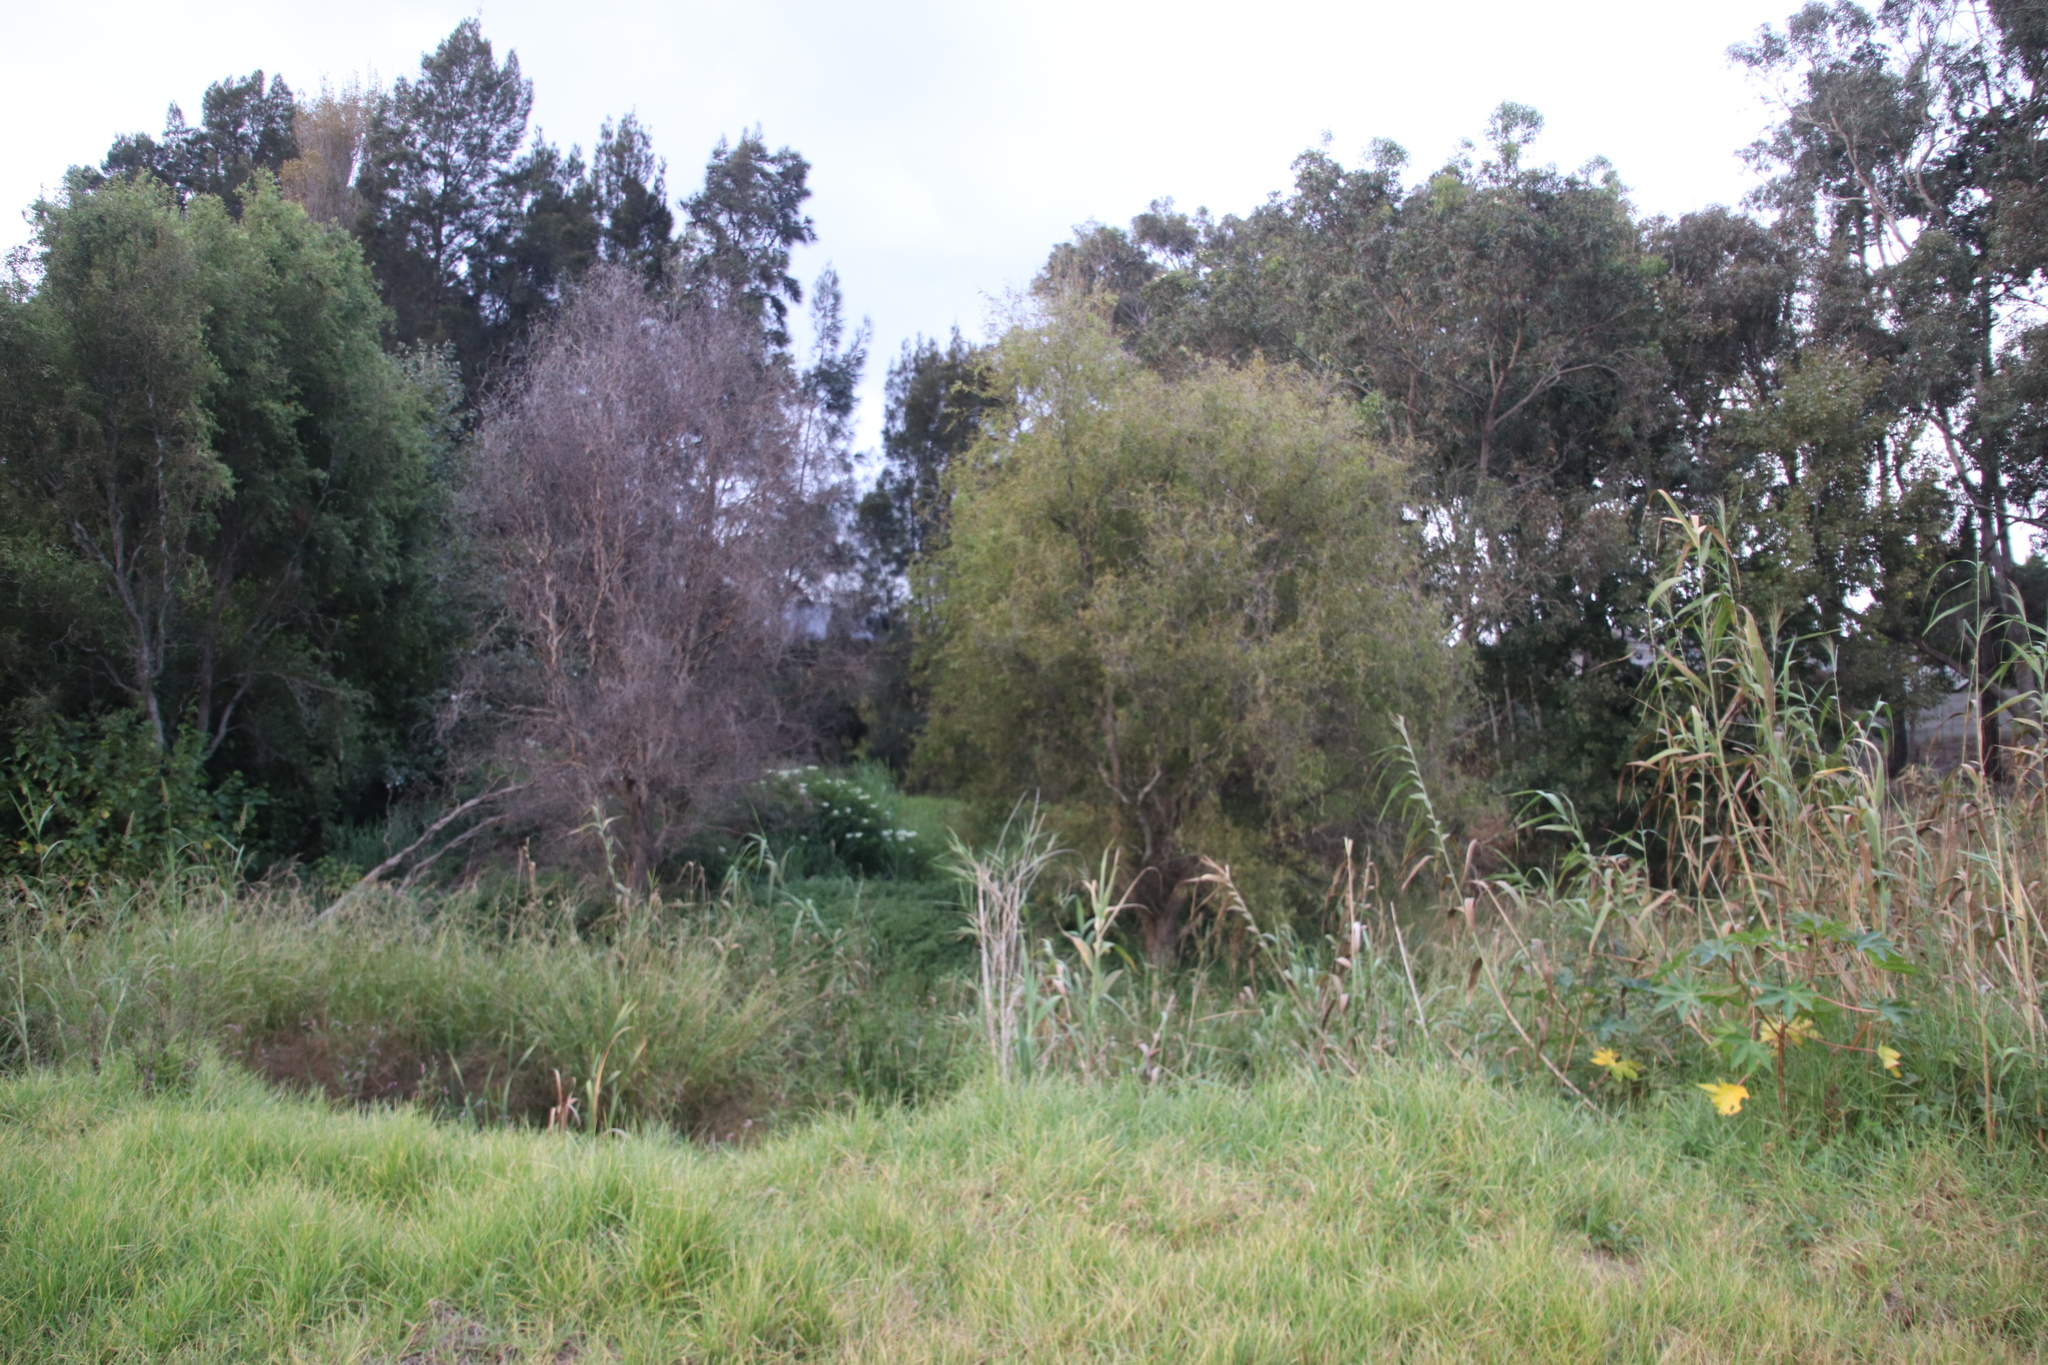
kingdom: Plantae
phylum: Tracheophyta
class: Magnoliopsida
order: Malpighiales
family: Salicaceae
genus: Salix
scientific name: Salix babylonica
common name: Weeping willow
